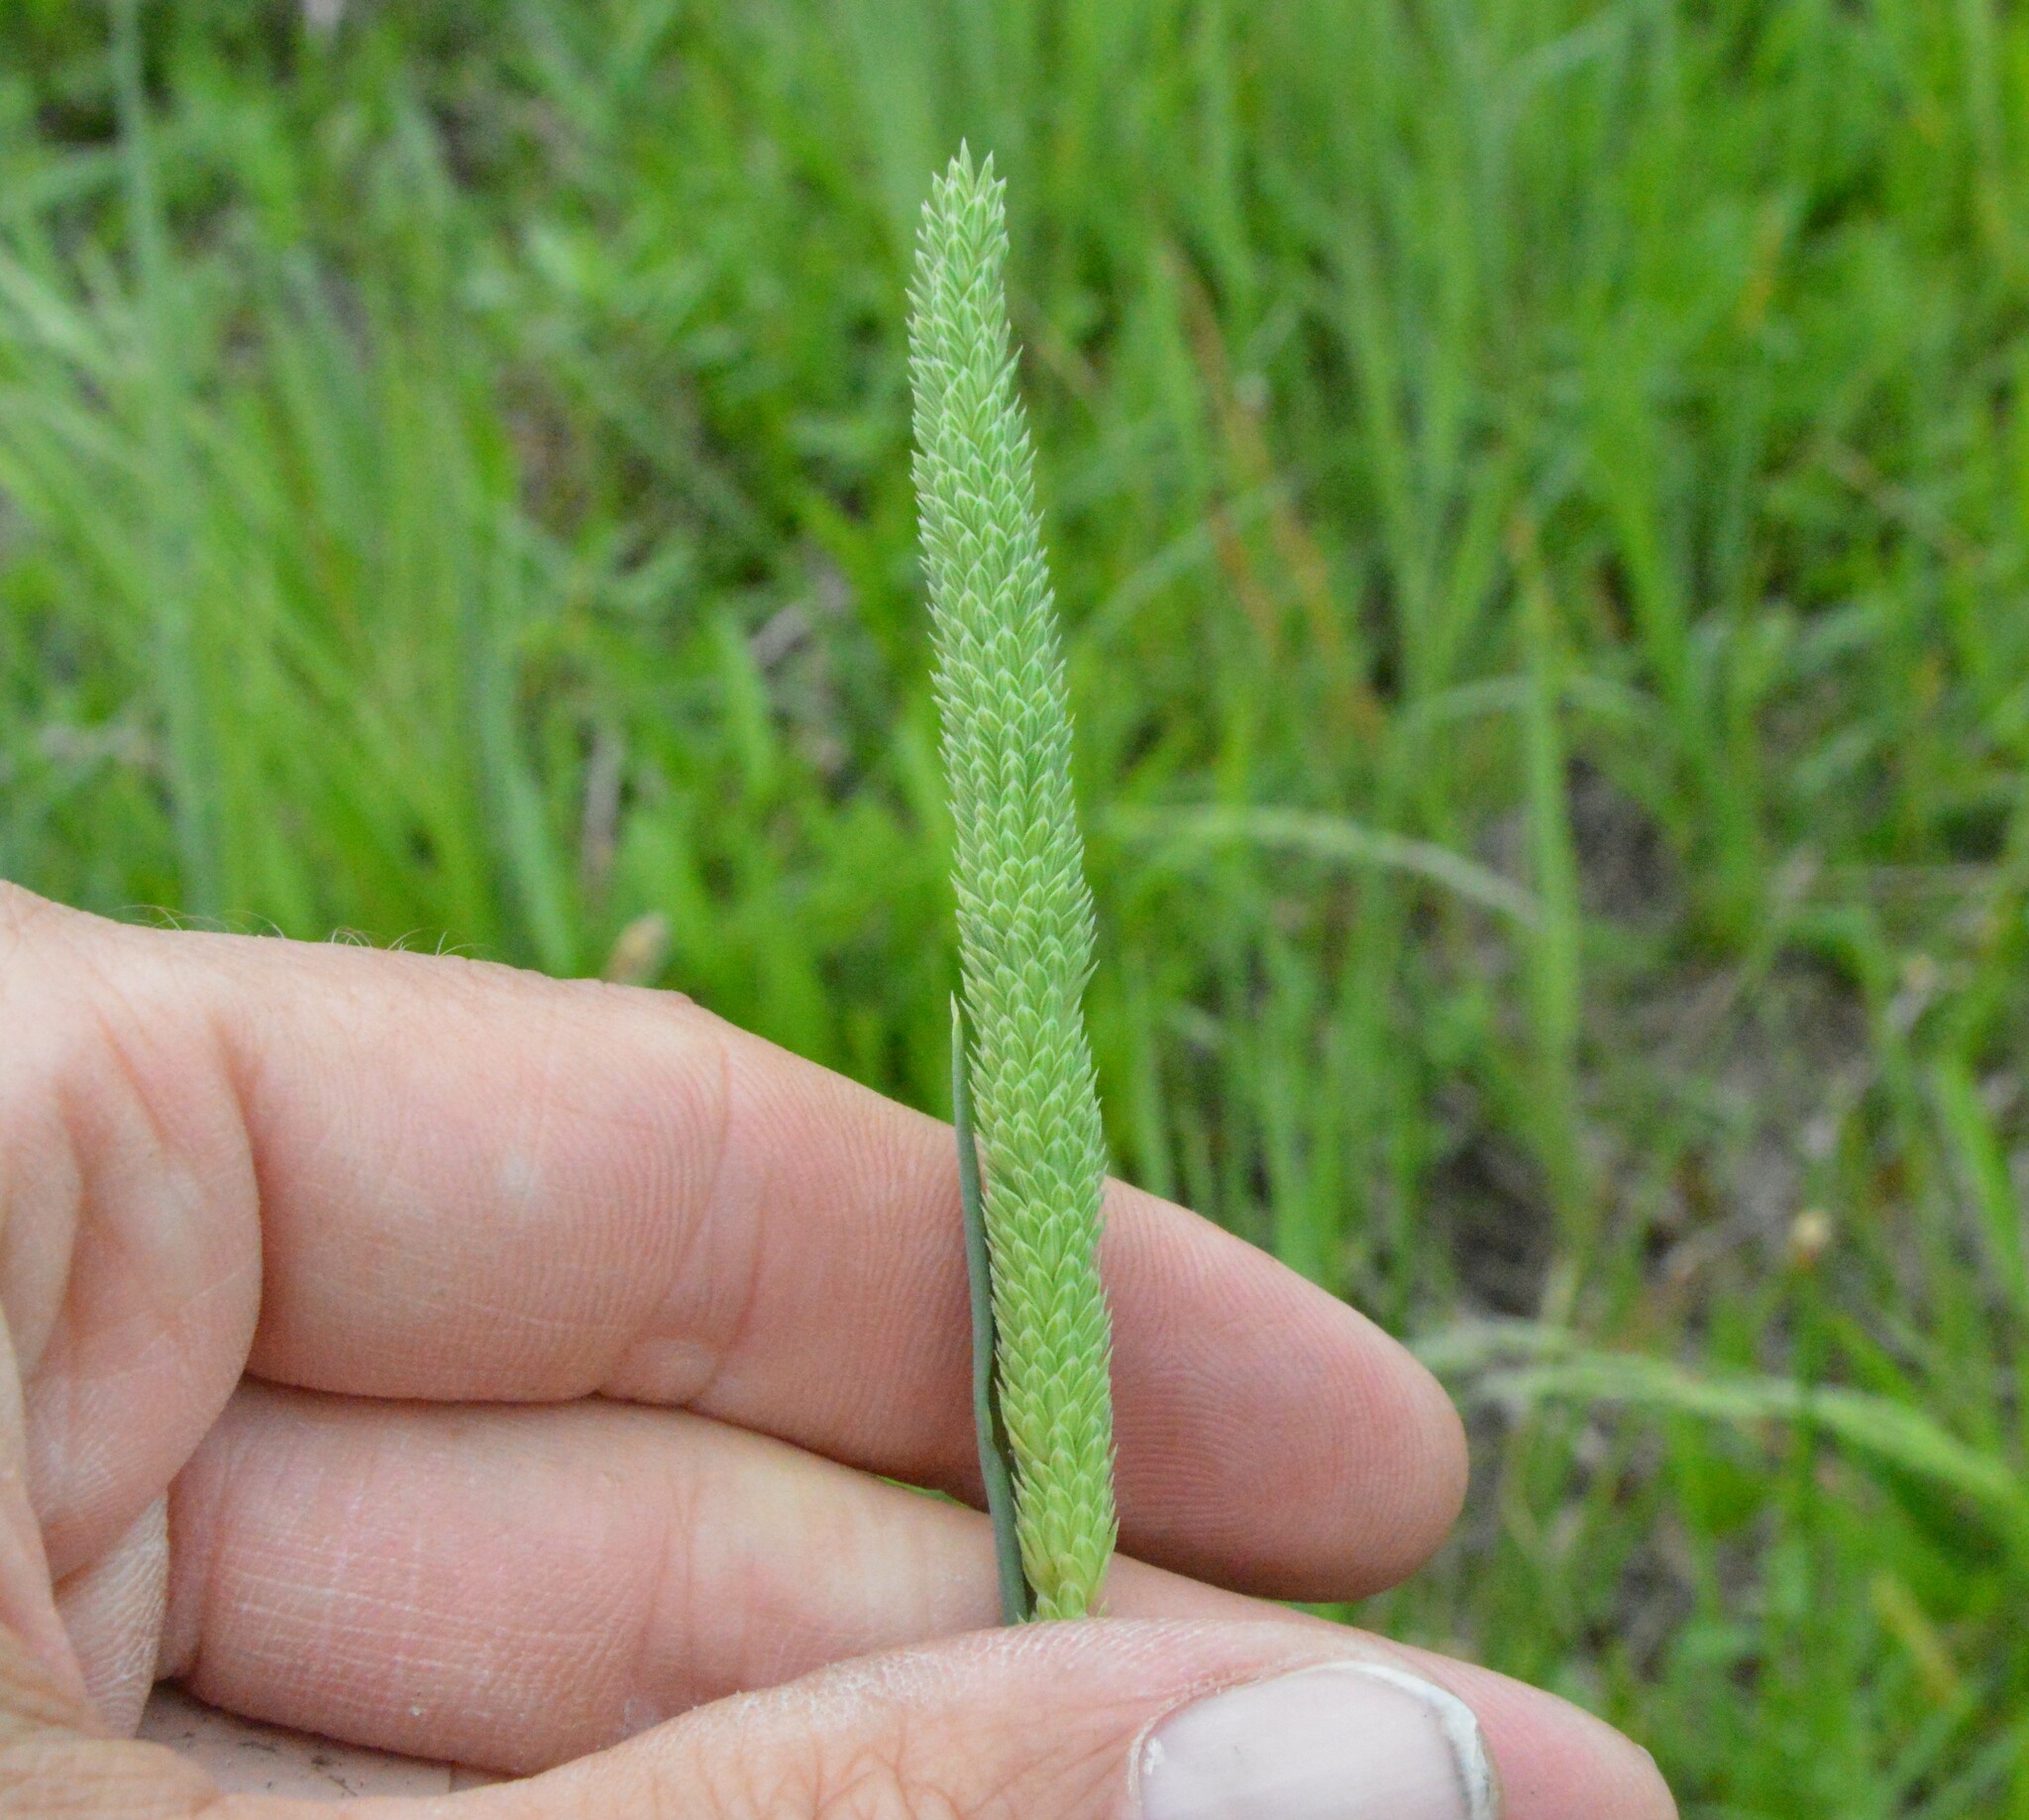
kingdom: Plantae
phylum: Tracheophyta
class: Liliopsida
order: Poales
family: Poaceae
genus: Phalaris
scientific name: Phalaris angusta
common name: Narrow canary grass
